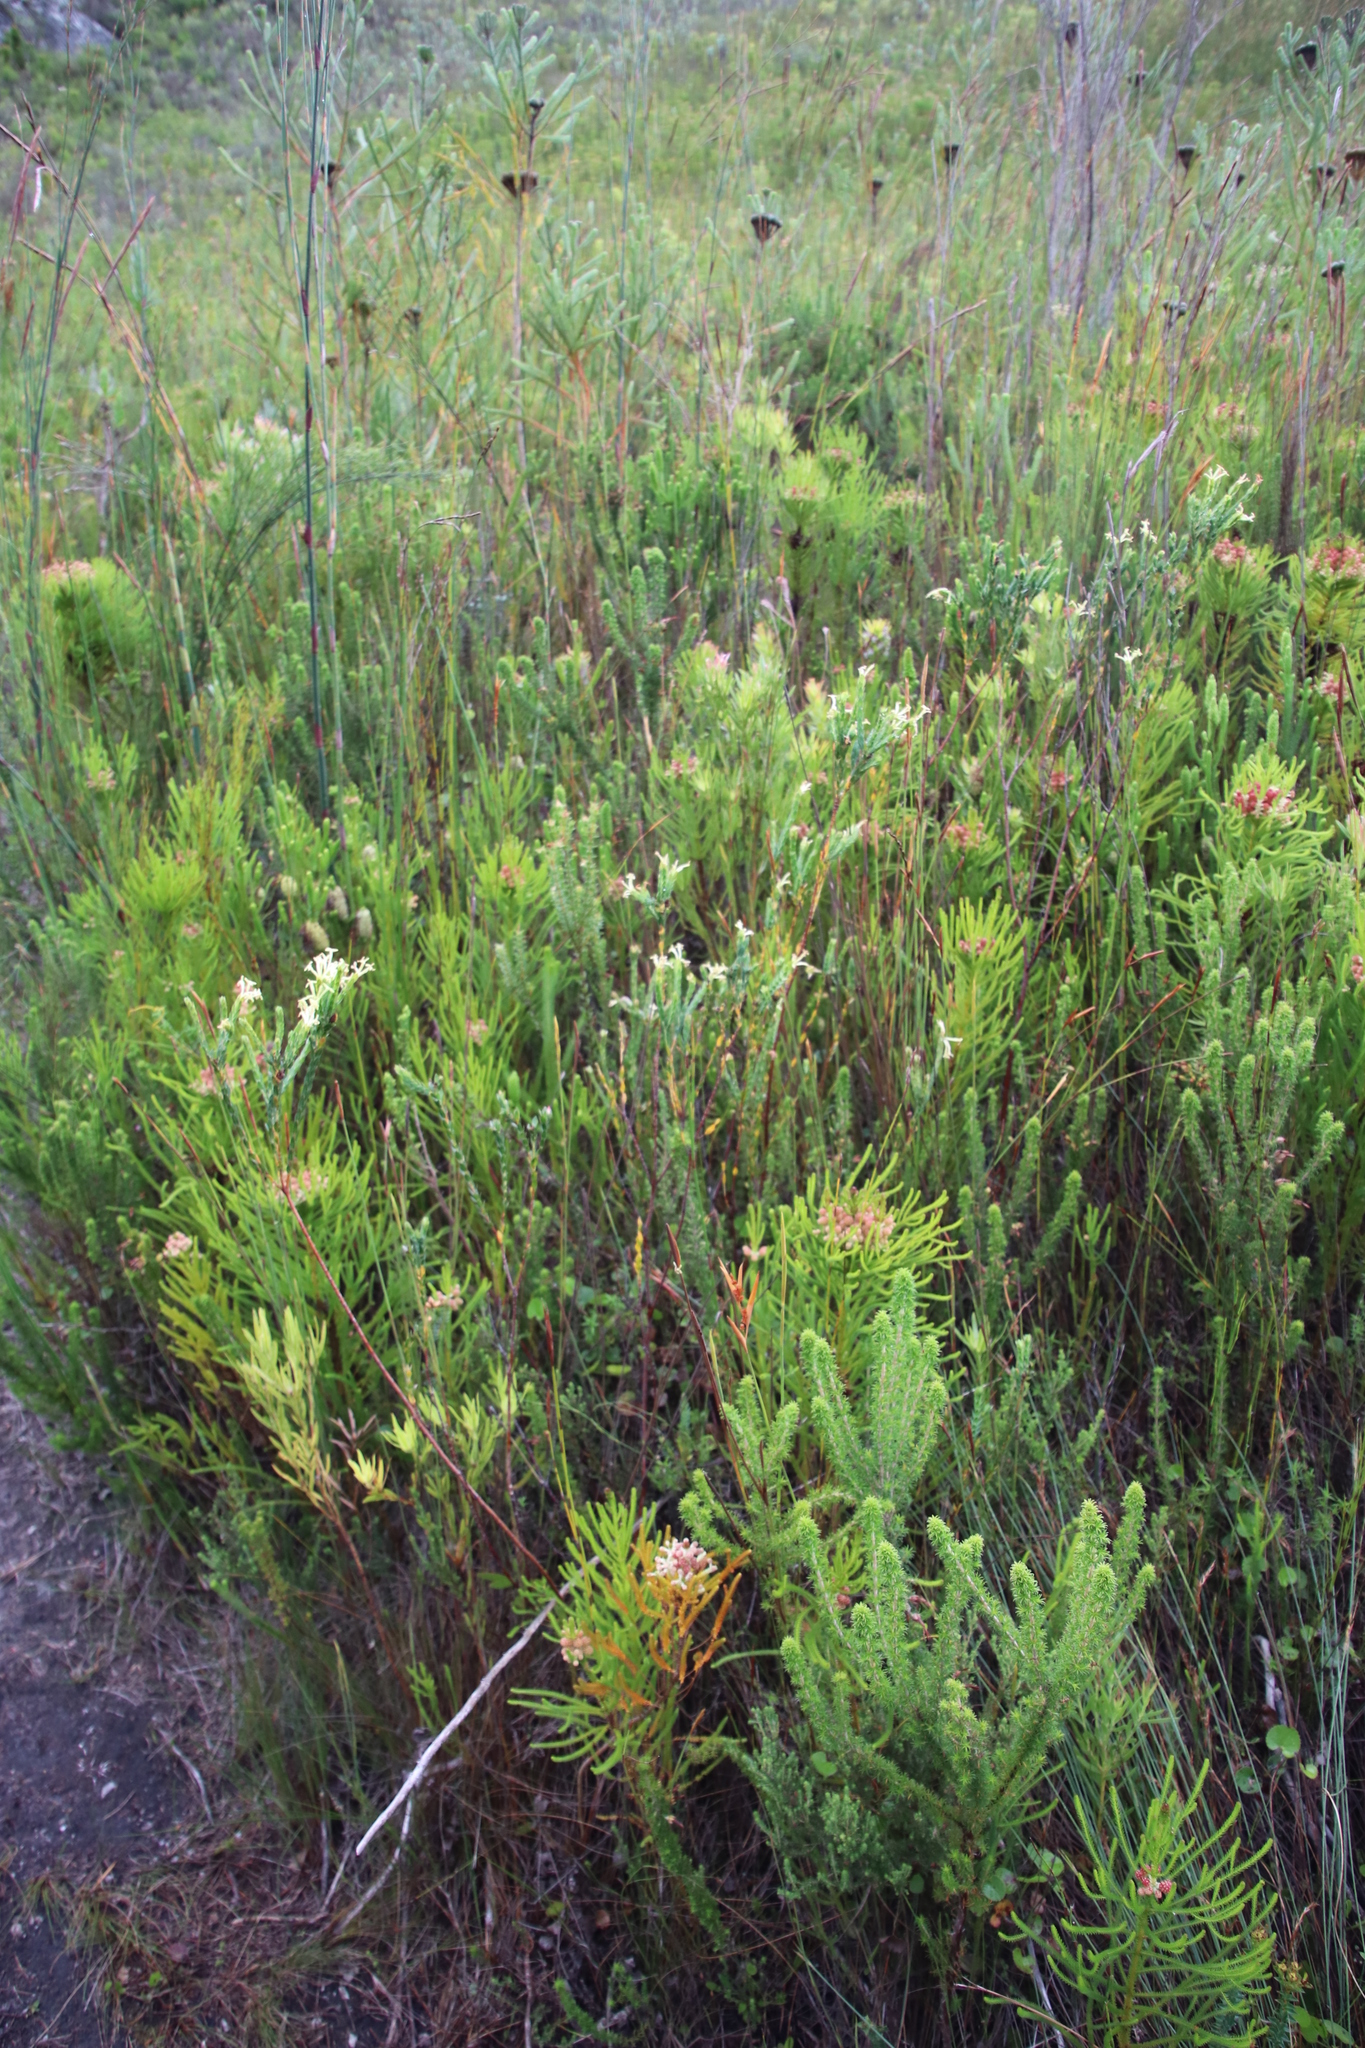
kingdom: Plantae
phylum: Tracheophyta
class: Magnoliopsida
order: Malvales
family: Thymelaeaceae
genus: Gnidia
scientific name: Gnidia oppositifolia
